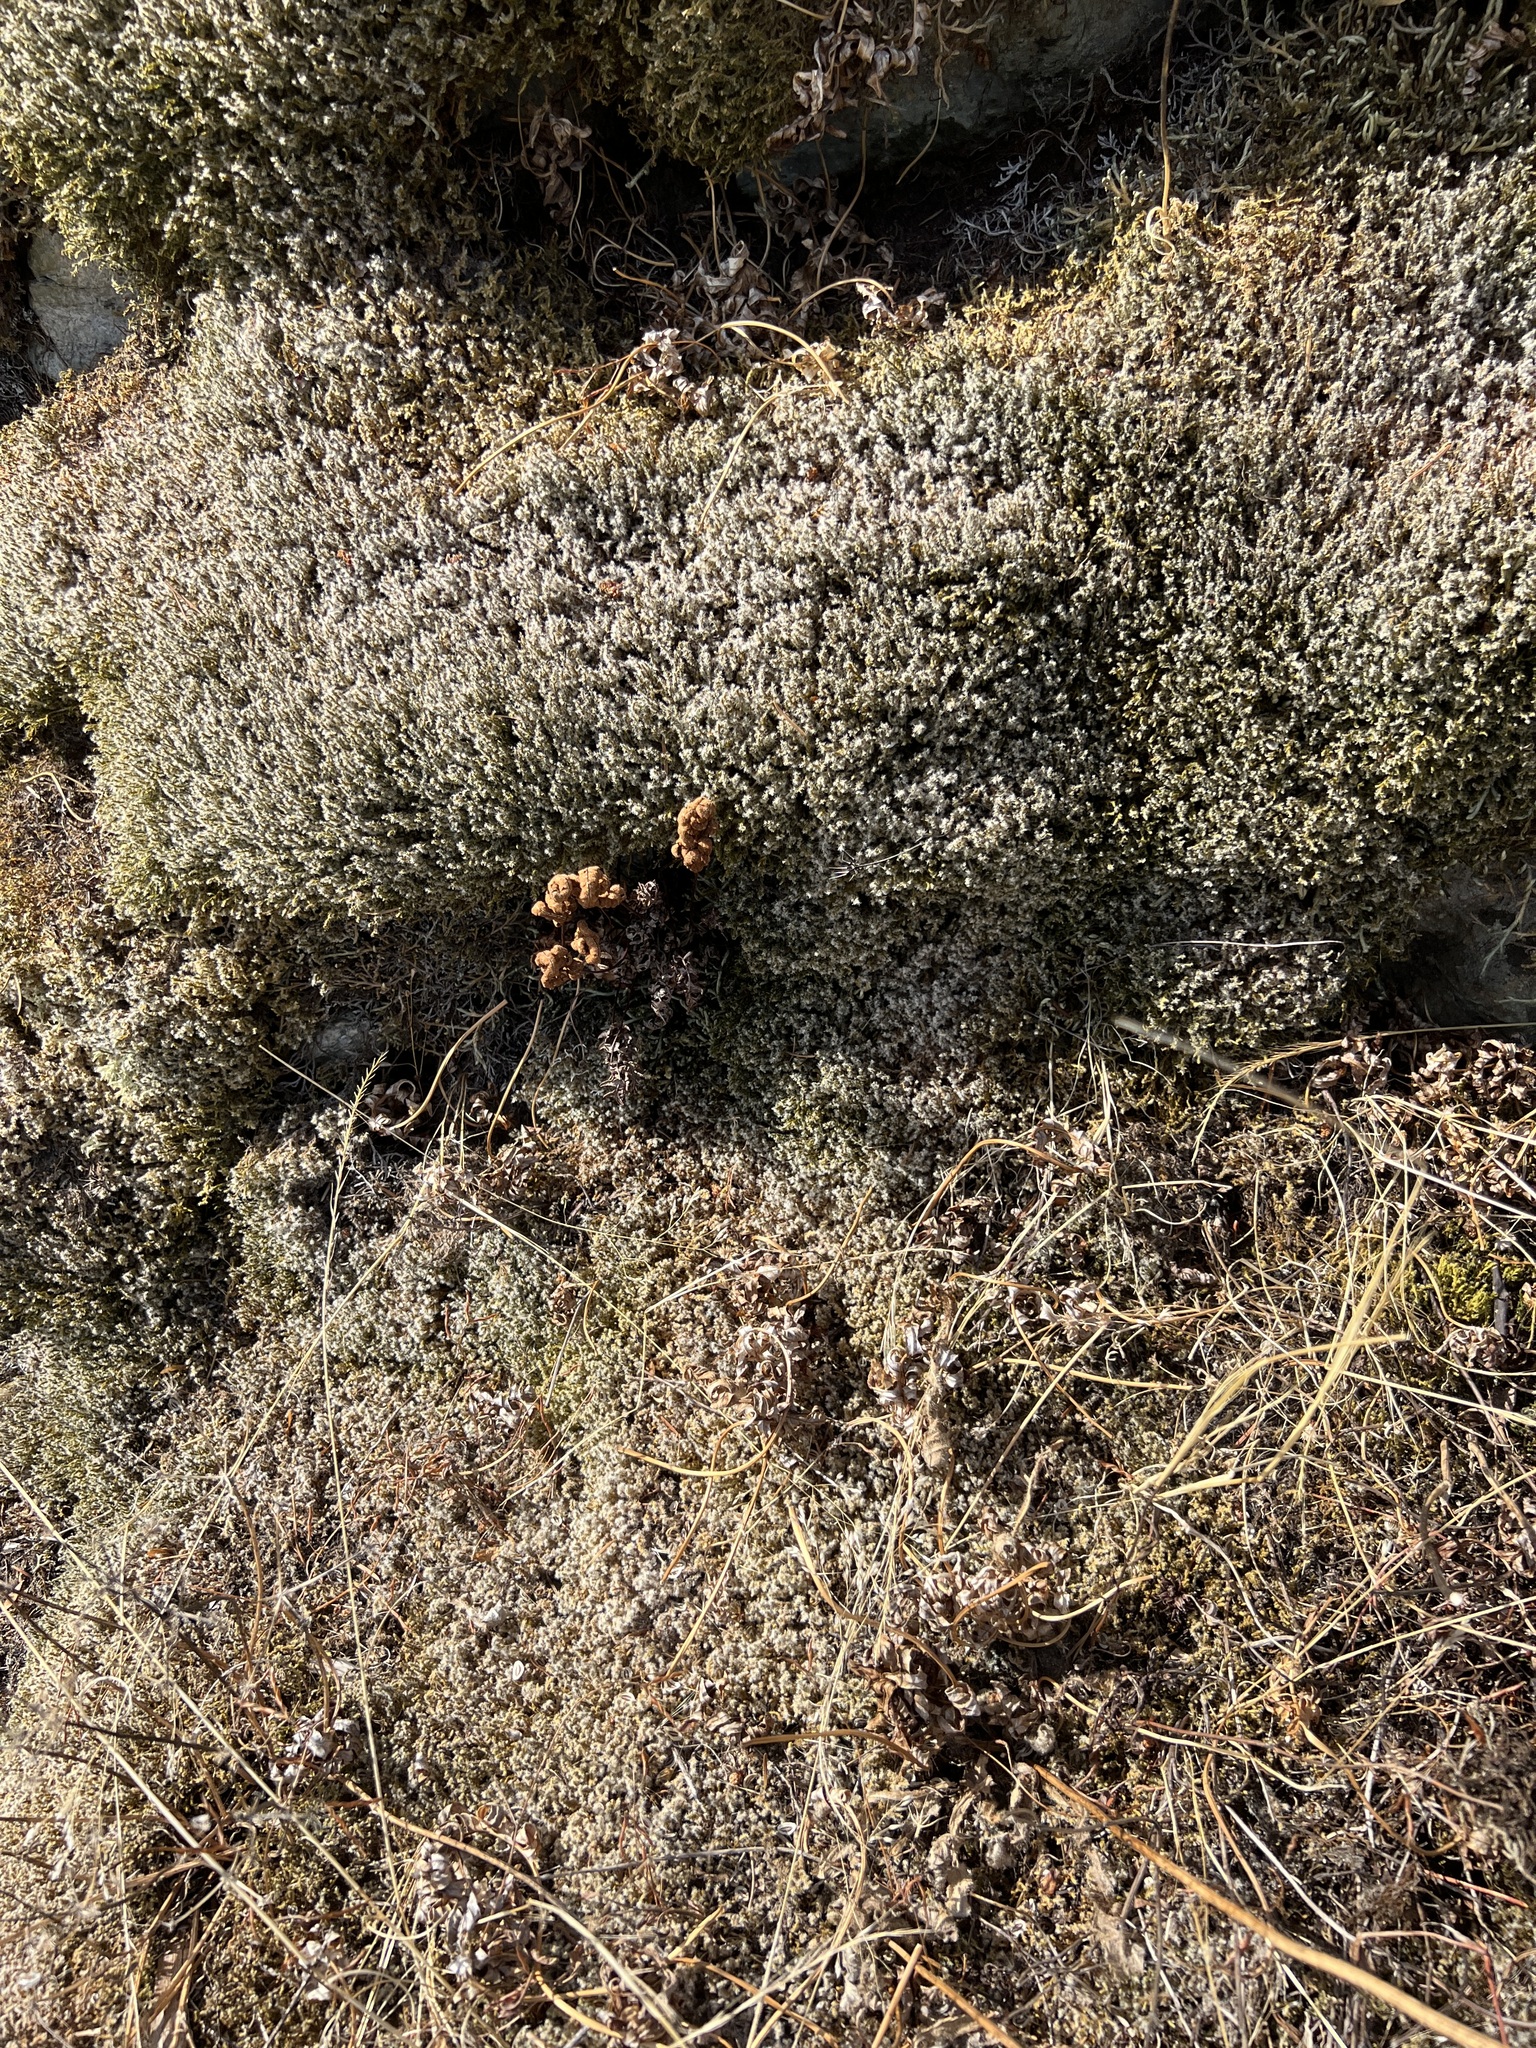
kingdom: Plantae
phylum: Tracheophyta
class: Polypodiopsida
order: Polypodiales
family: Pteridaceae
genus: Pentagramma
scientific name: Pentagramma triangularis
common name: Gold fern
